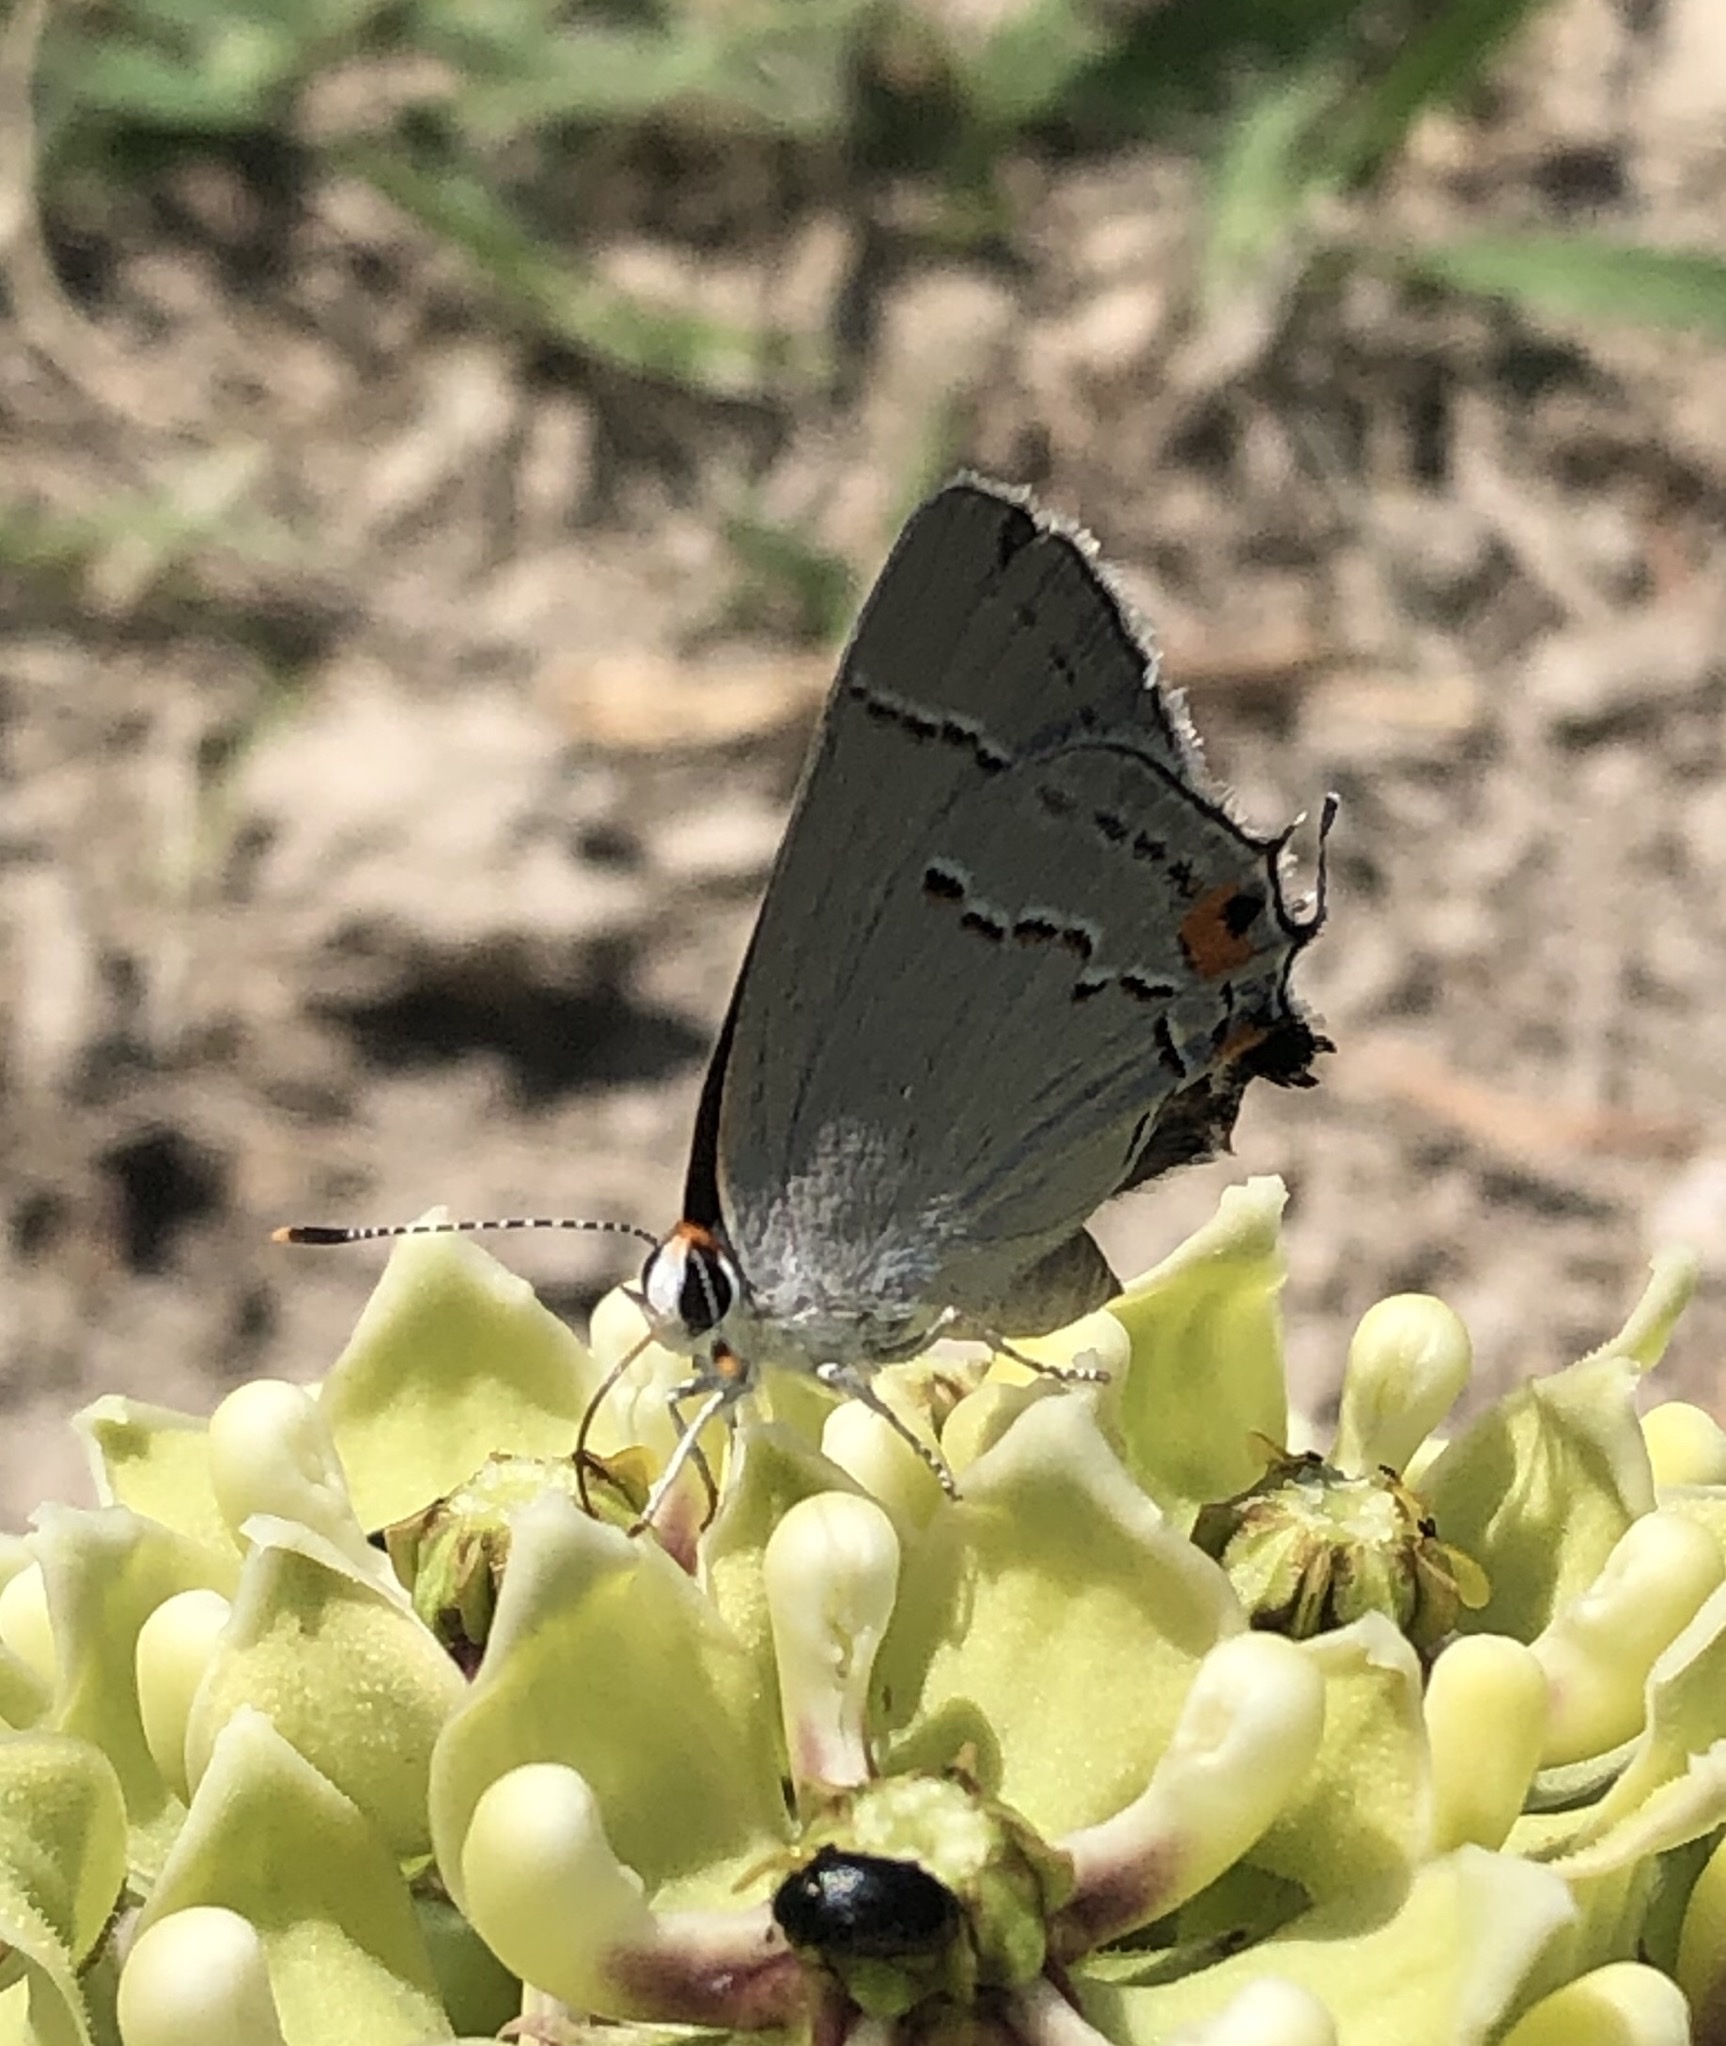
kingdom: Animalia
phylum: Arthropoda
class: Insecta
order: Lepidoptera
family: Lycaenidae
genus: Strymon
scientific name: Strymon melinus
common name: Gray hairstreak
